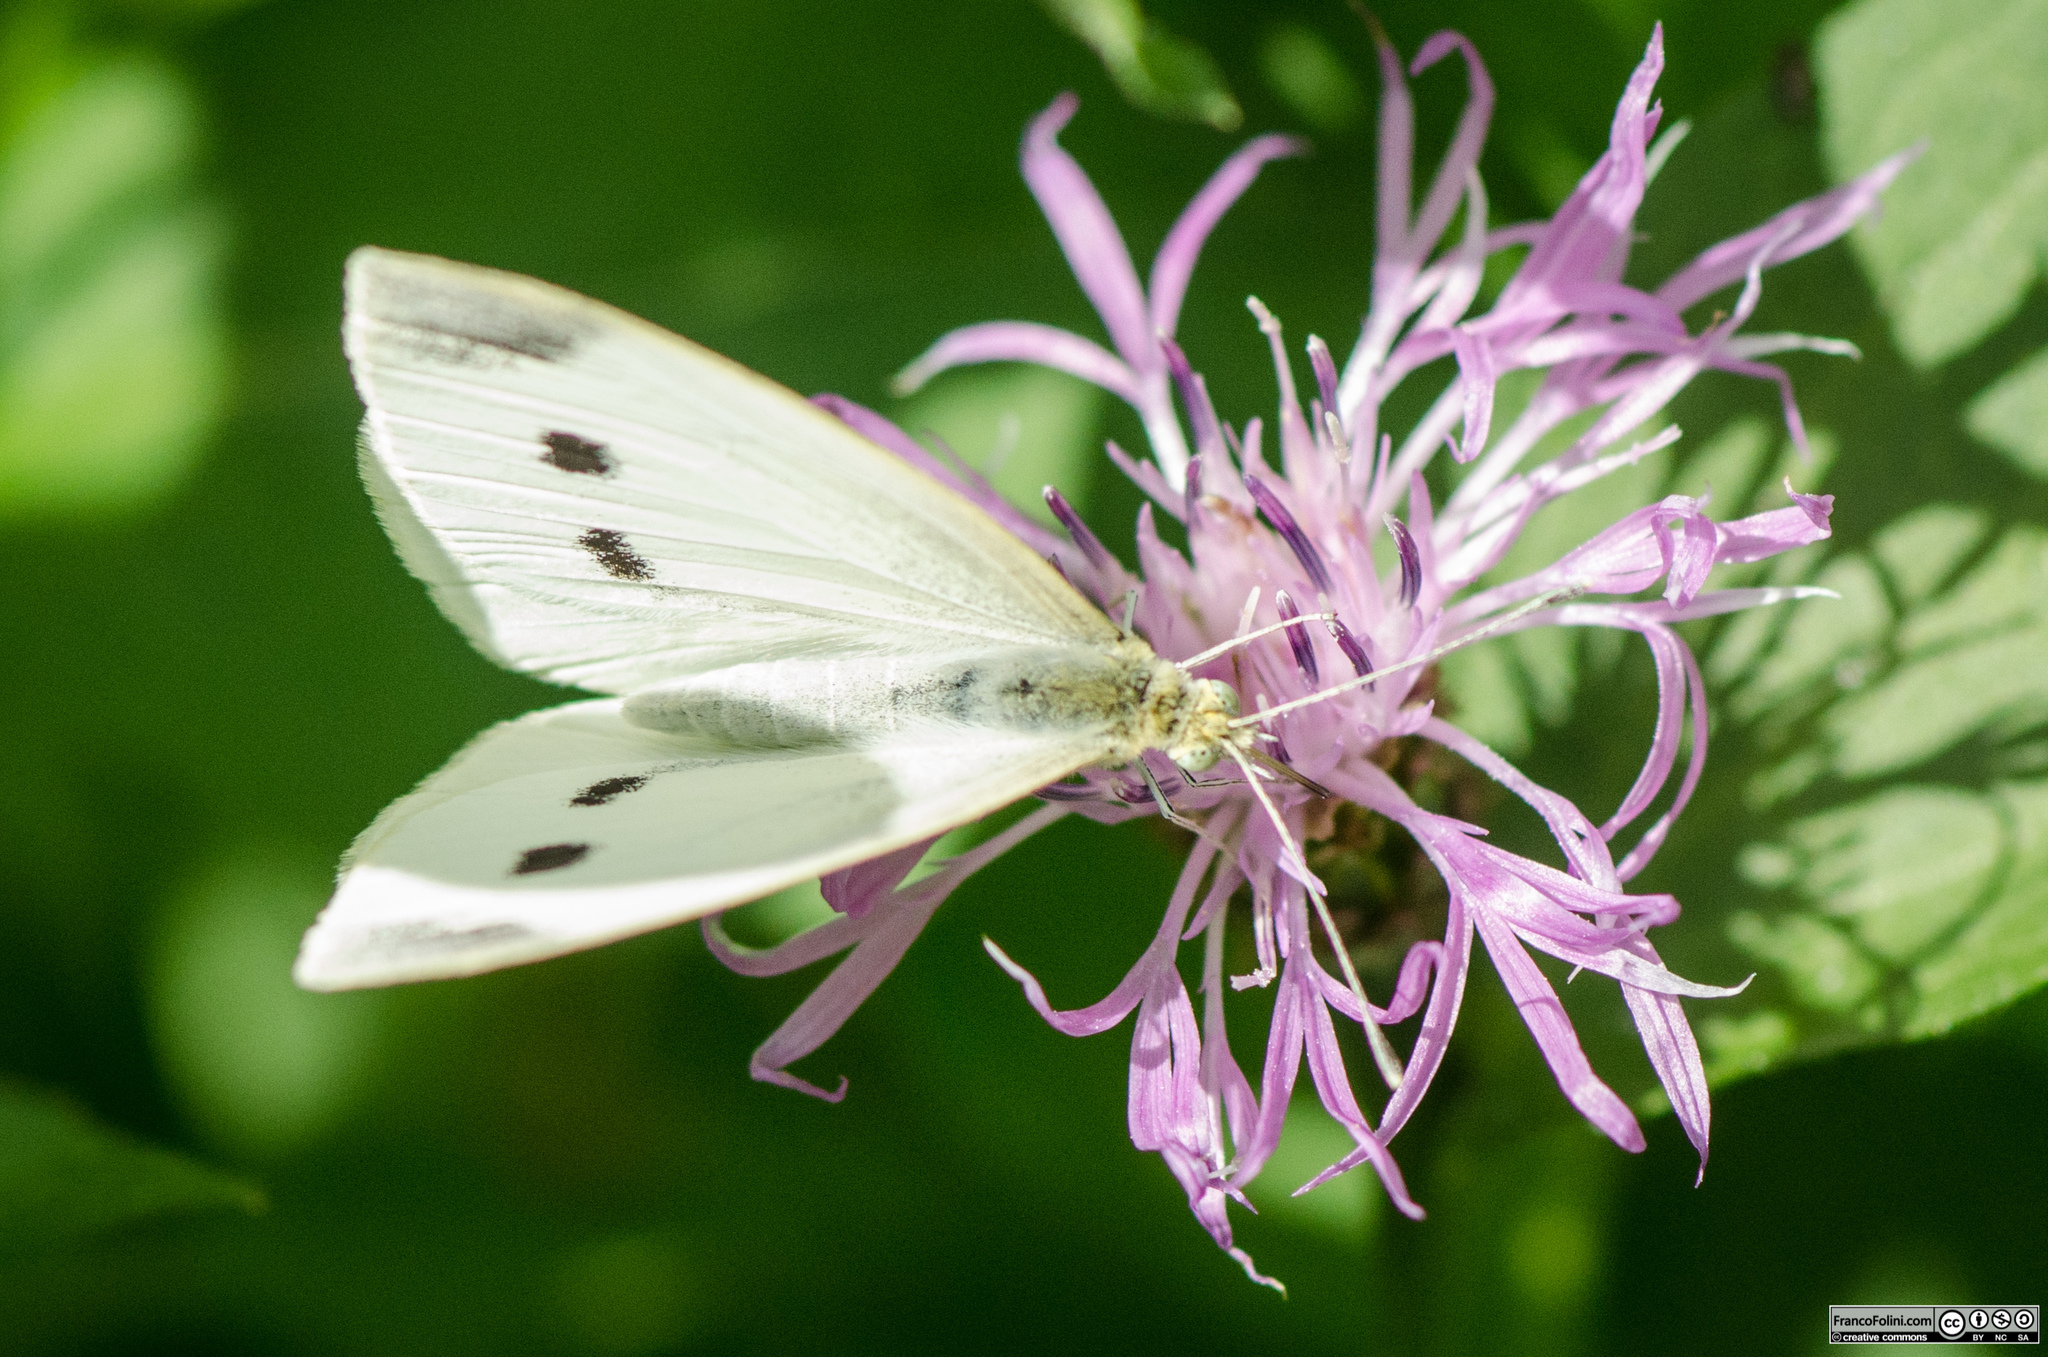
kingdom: Animalia
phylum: Arthropoda
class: Insecta
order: Lepidoptera
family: Pieridae
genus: Pieris
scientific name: Pieris rapae
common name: Small white
